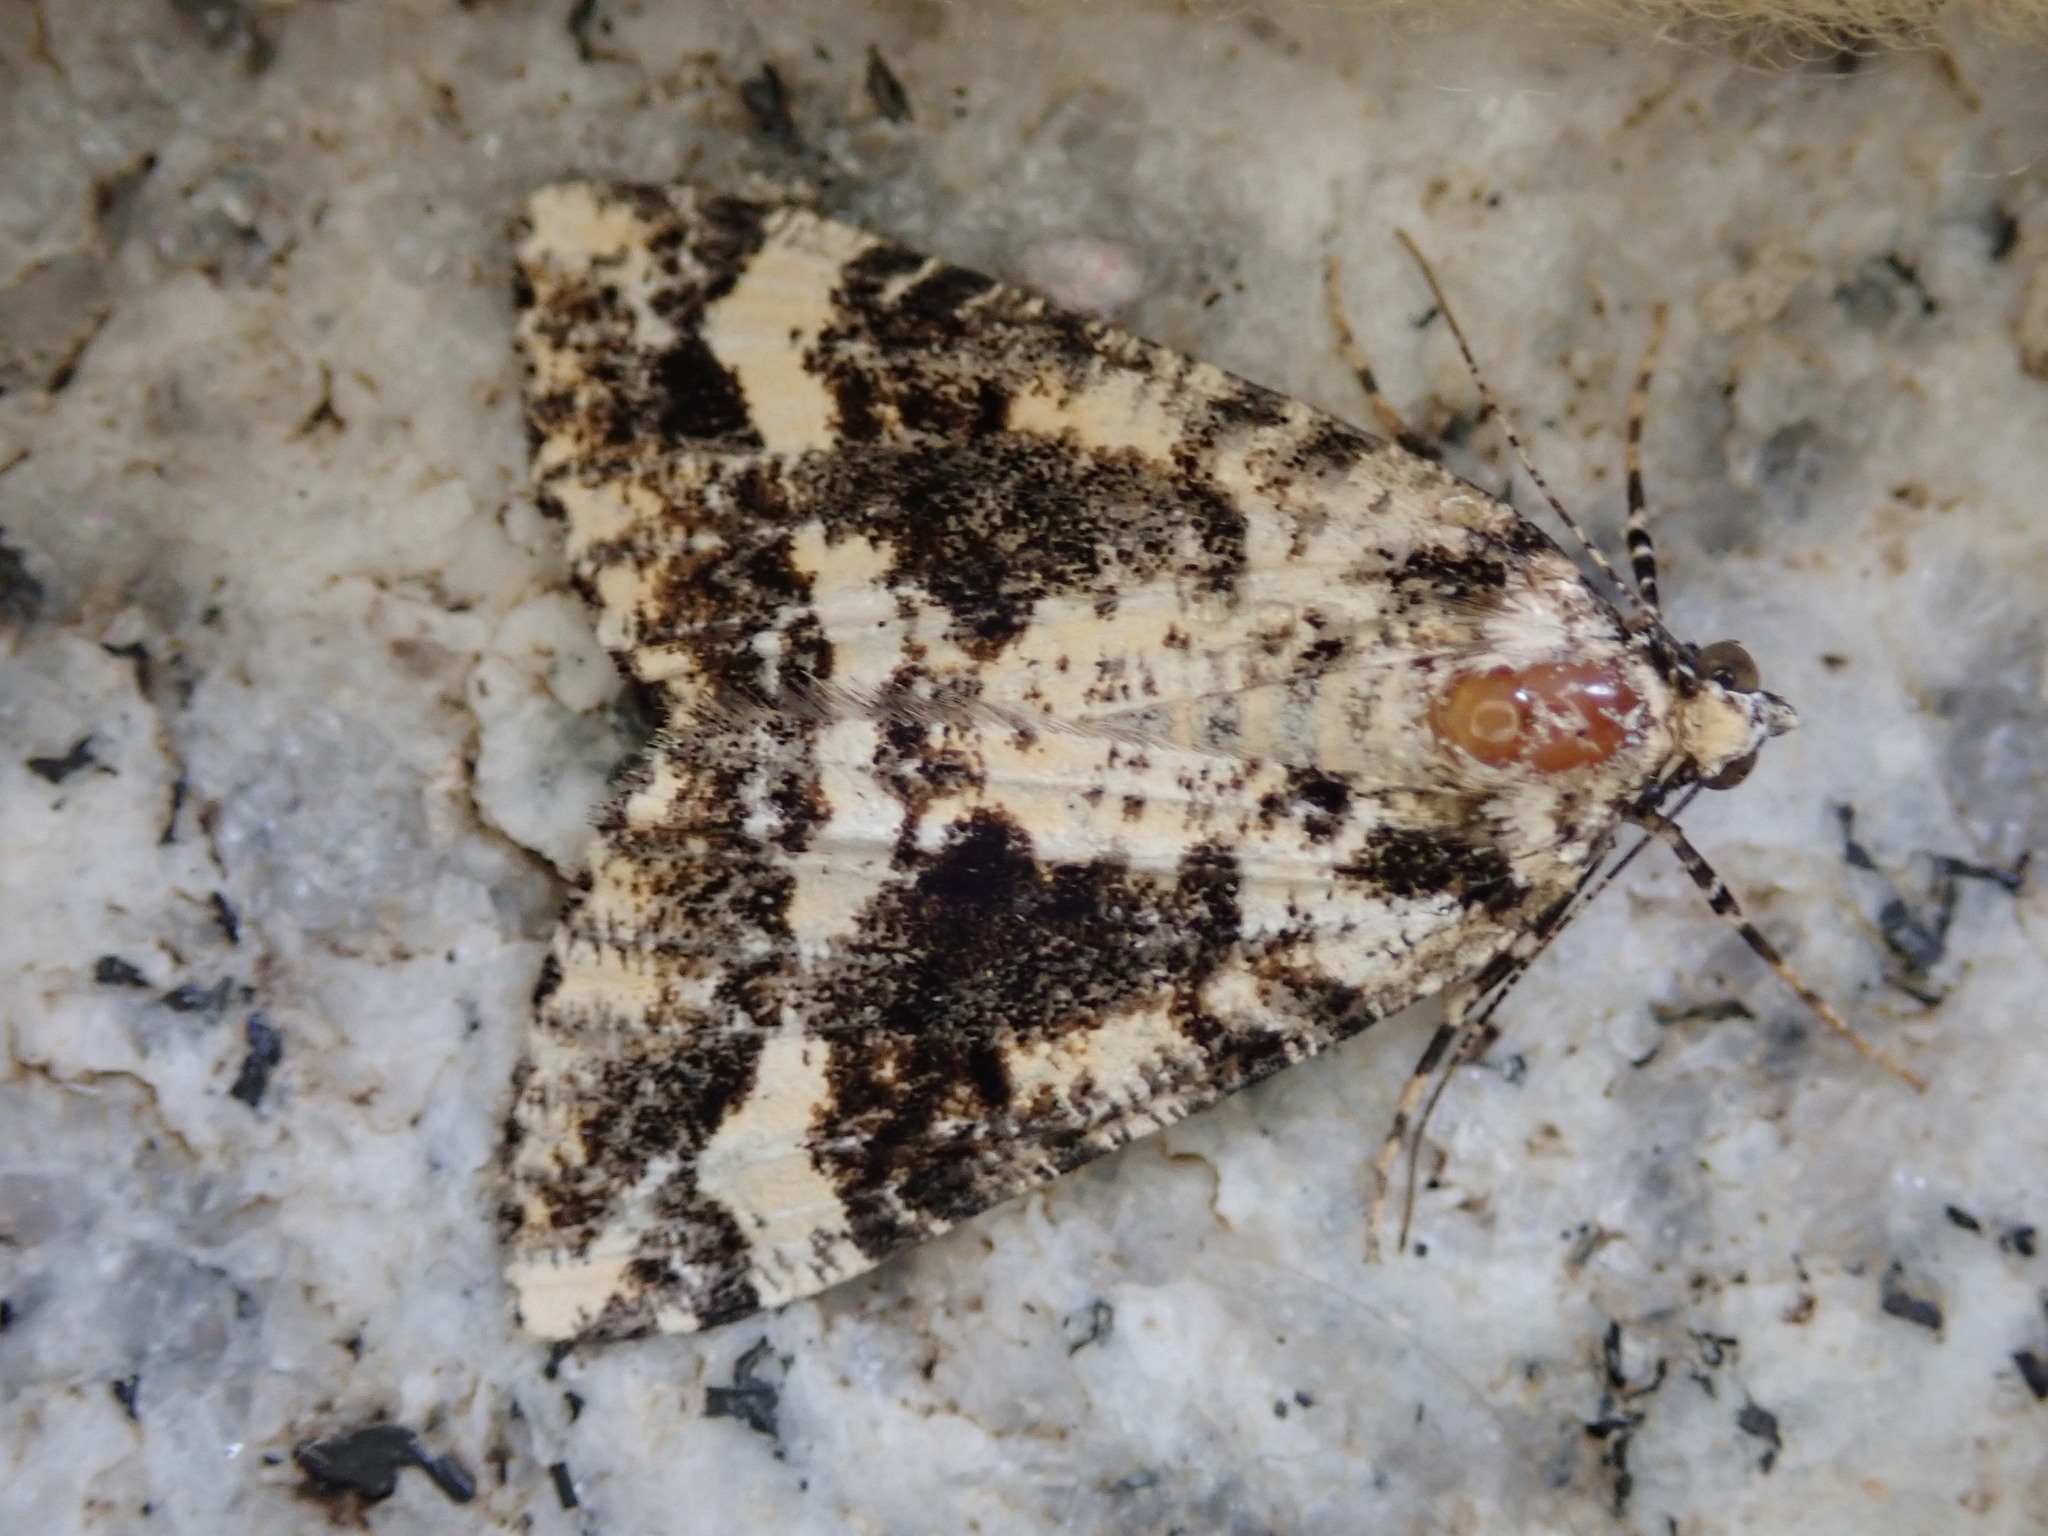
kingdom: Animalia
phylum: Arthropoda
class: Insecta
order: Lepidoptera
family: Geometridae
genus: Pseudocoremia
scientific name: Pseudocoremia leucelaea
